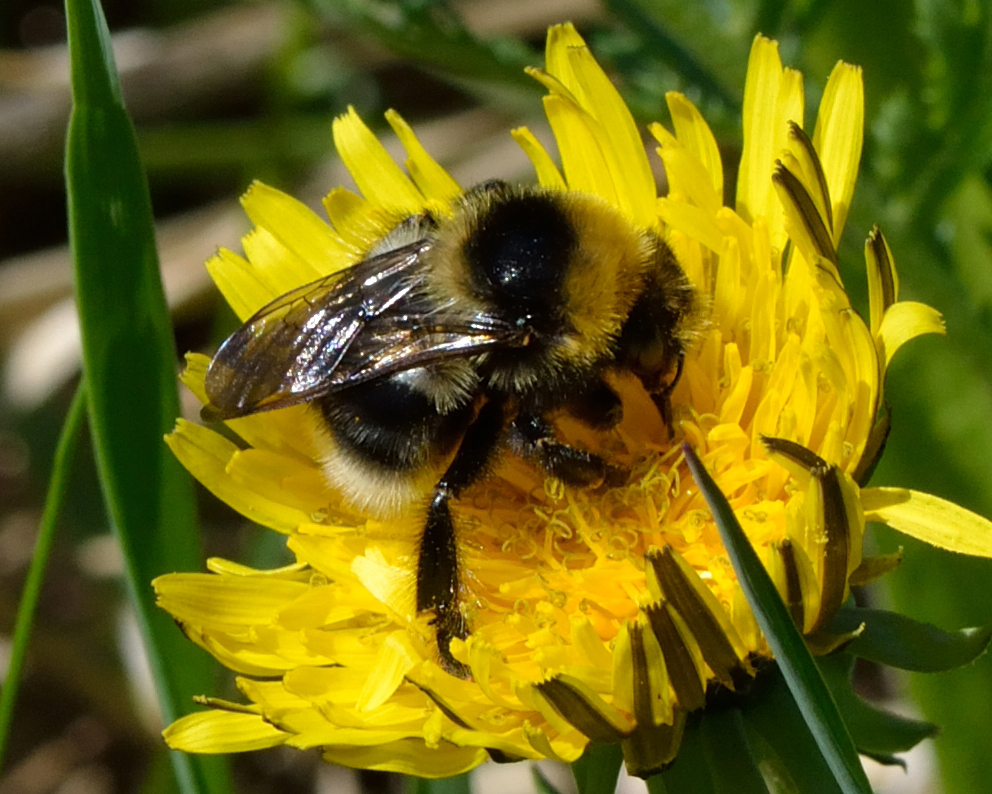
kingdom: Animalia
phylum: Arthropoda
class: Insecta
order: Hymenoptera
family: Apidae
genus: Bombus
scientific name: Bombus semenoviellus
